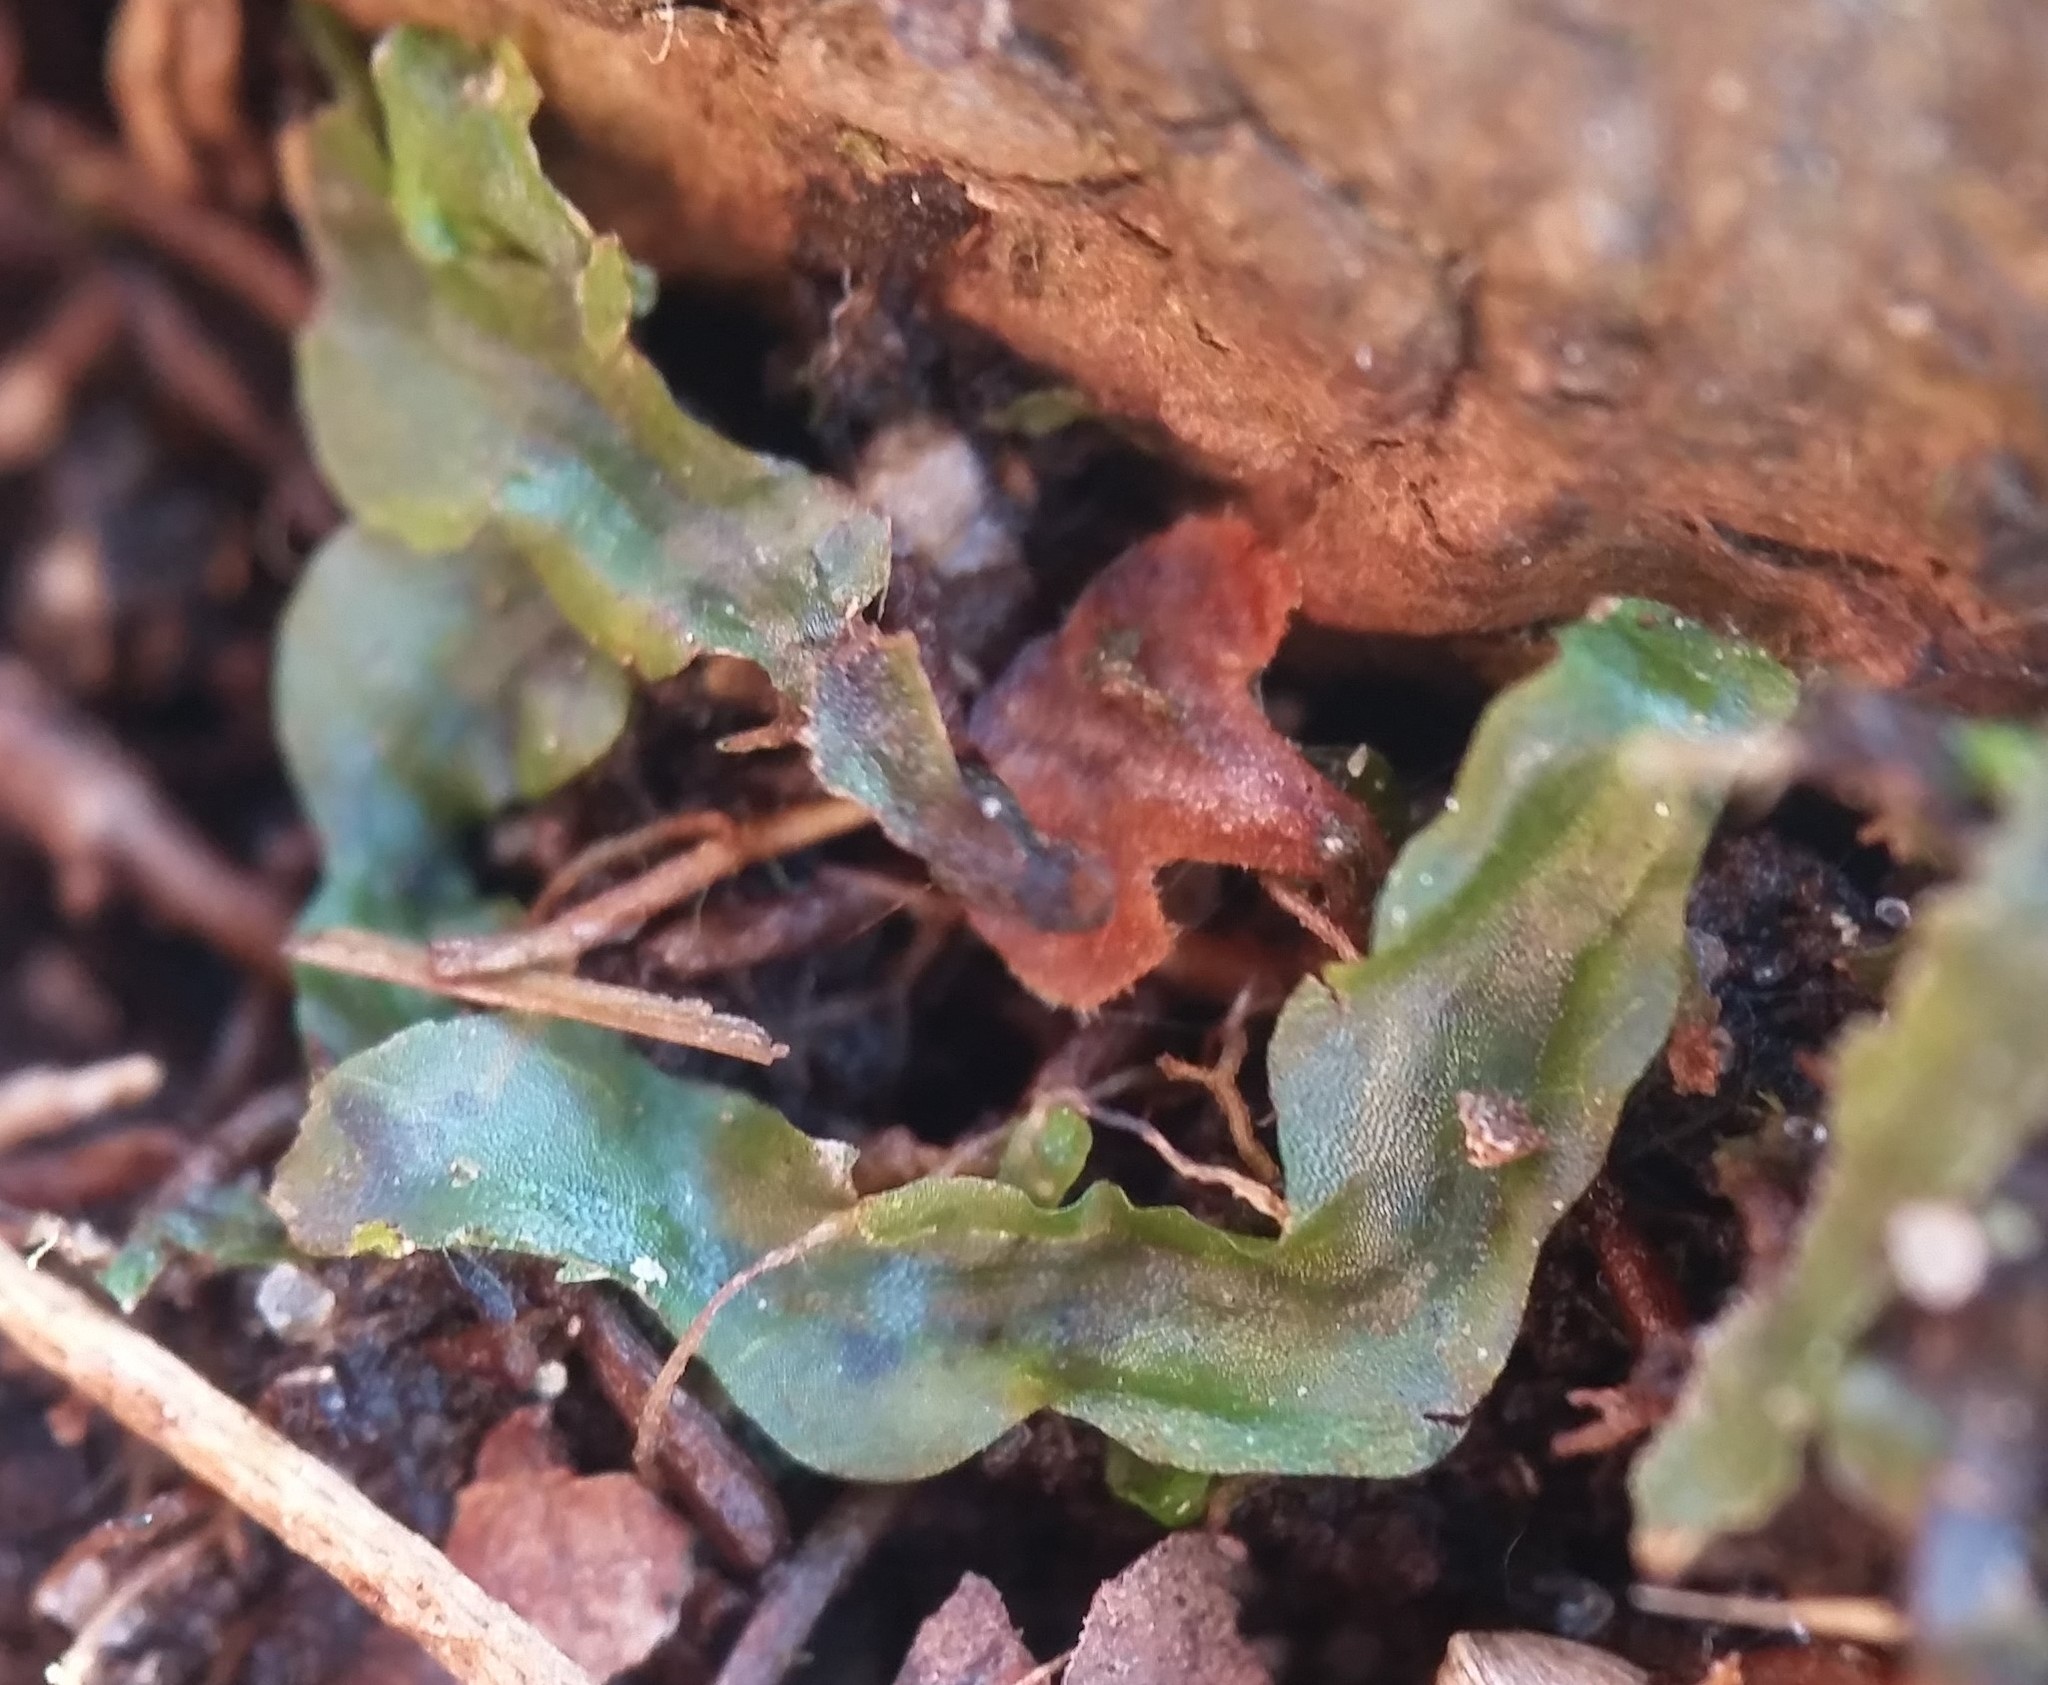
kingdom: Plantae
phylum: Marchantiophyta
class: Jungermanniopsida
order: Pallaviciniales
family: Pallaviciniaceae
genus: Pallavicinia
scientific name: Pallavicinia lyellii
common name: Veilwort
